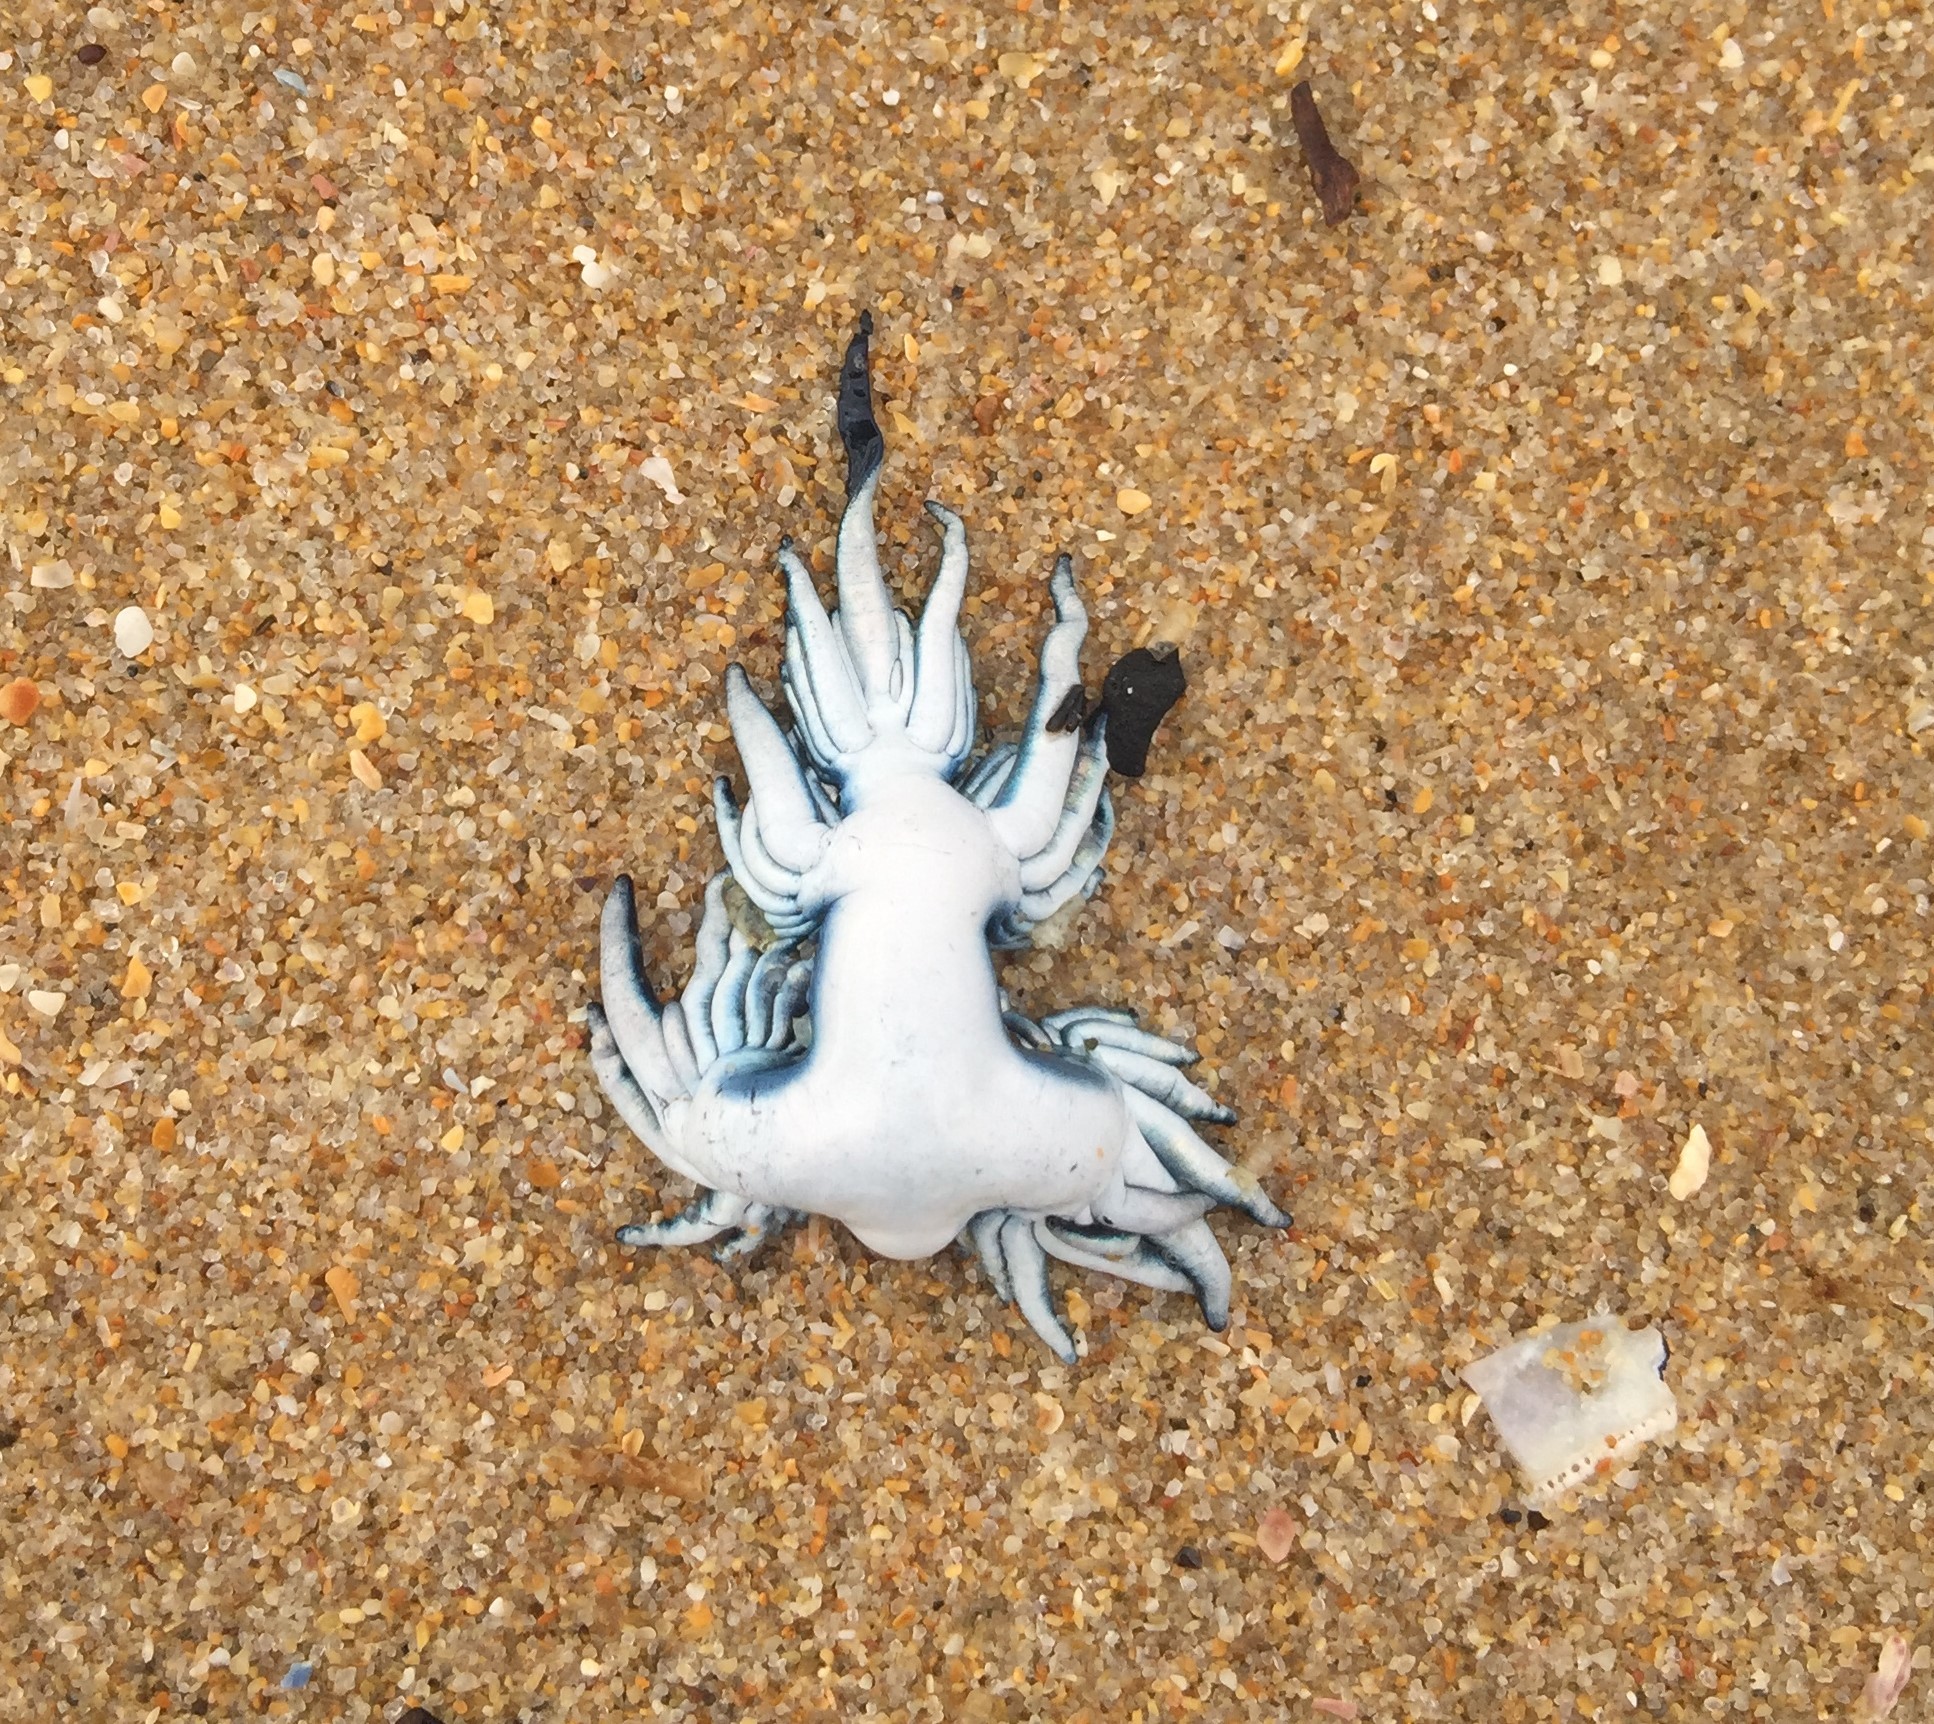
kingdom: Animalia
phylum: Mollusca
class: Gastropoda
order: Nudibranchia
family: Glaucidae
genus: Glaucus
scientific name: Glaucus atlanticus
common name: Purple ocean slug
